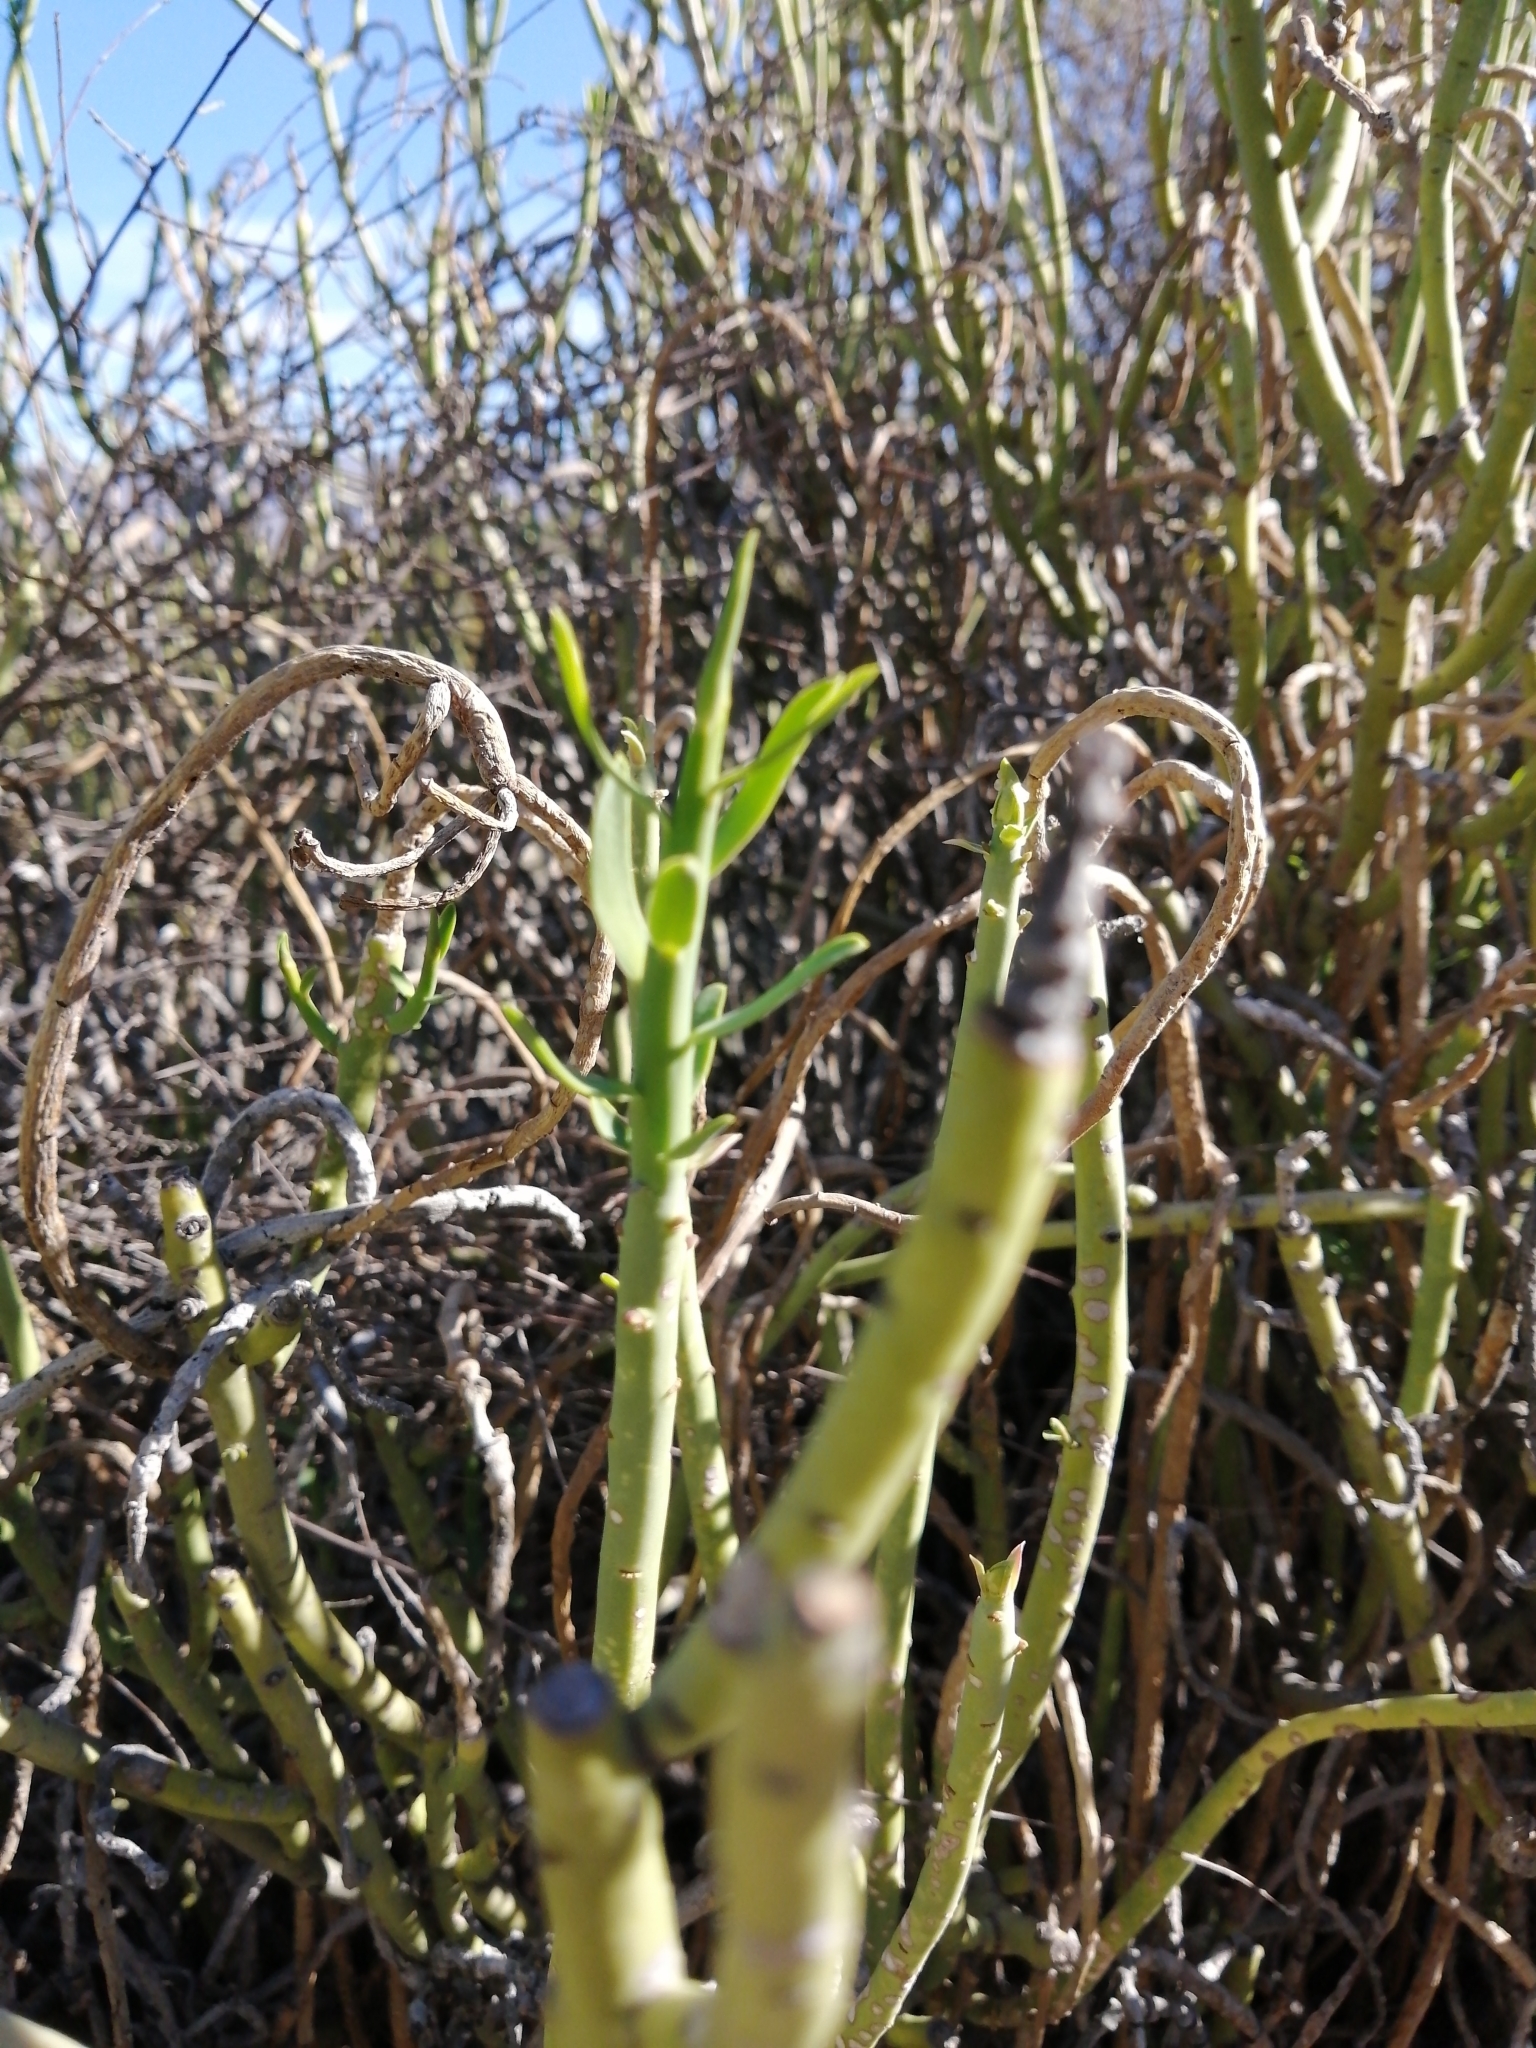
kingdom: Plantae
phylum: Tracheophyta
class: Magnoliopsida
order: Malpighiales
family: Euphorbiaceae
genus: Euphorbia
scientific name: Euphorbia mauritanica
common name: Jackal's-food
